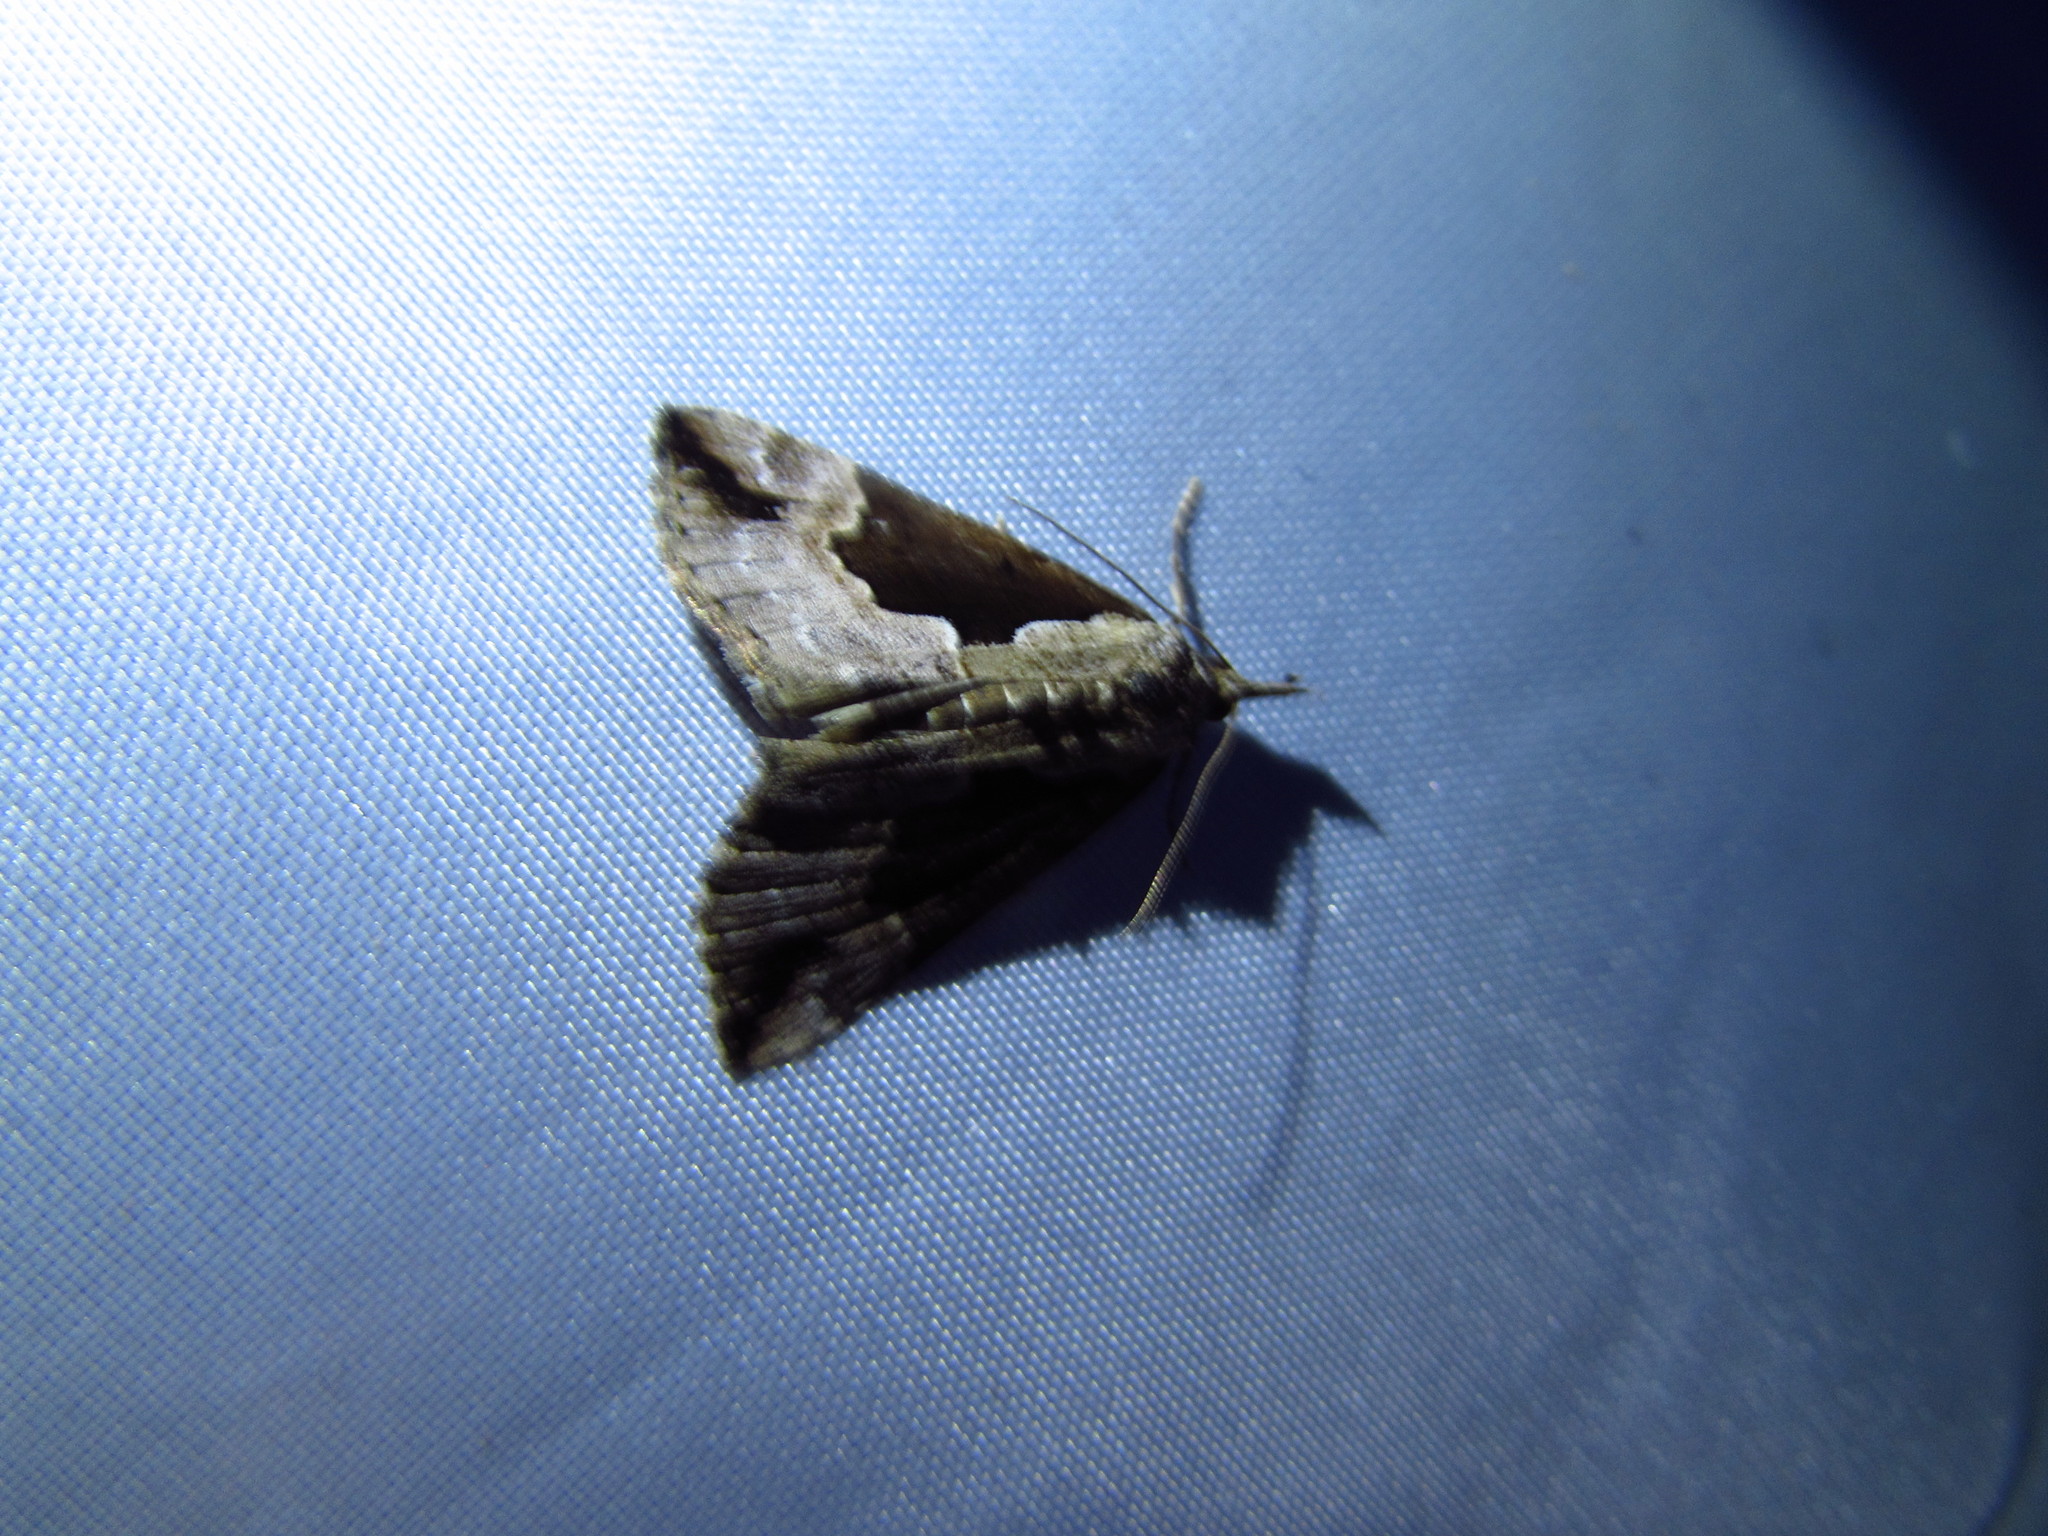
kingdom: Animalia
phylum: Arthropoda
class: Insecta
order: Lepidoptera
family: Erebidae
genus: Hypena
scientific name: Hypena baltimoralis
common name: Baltimore snout
